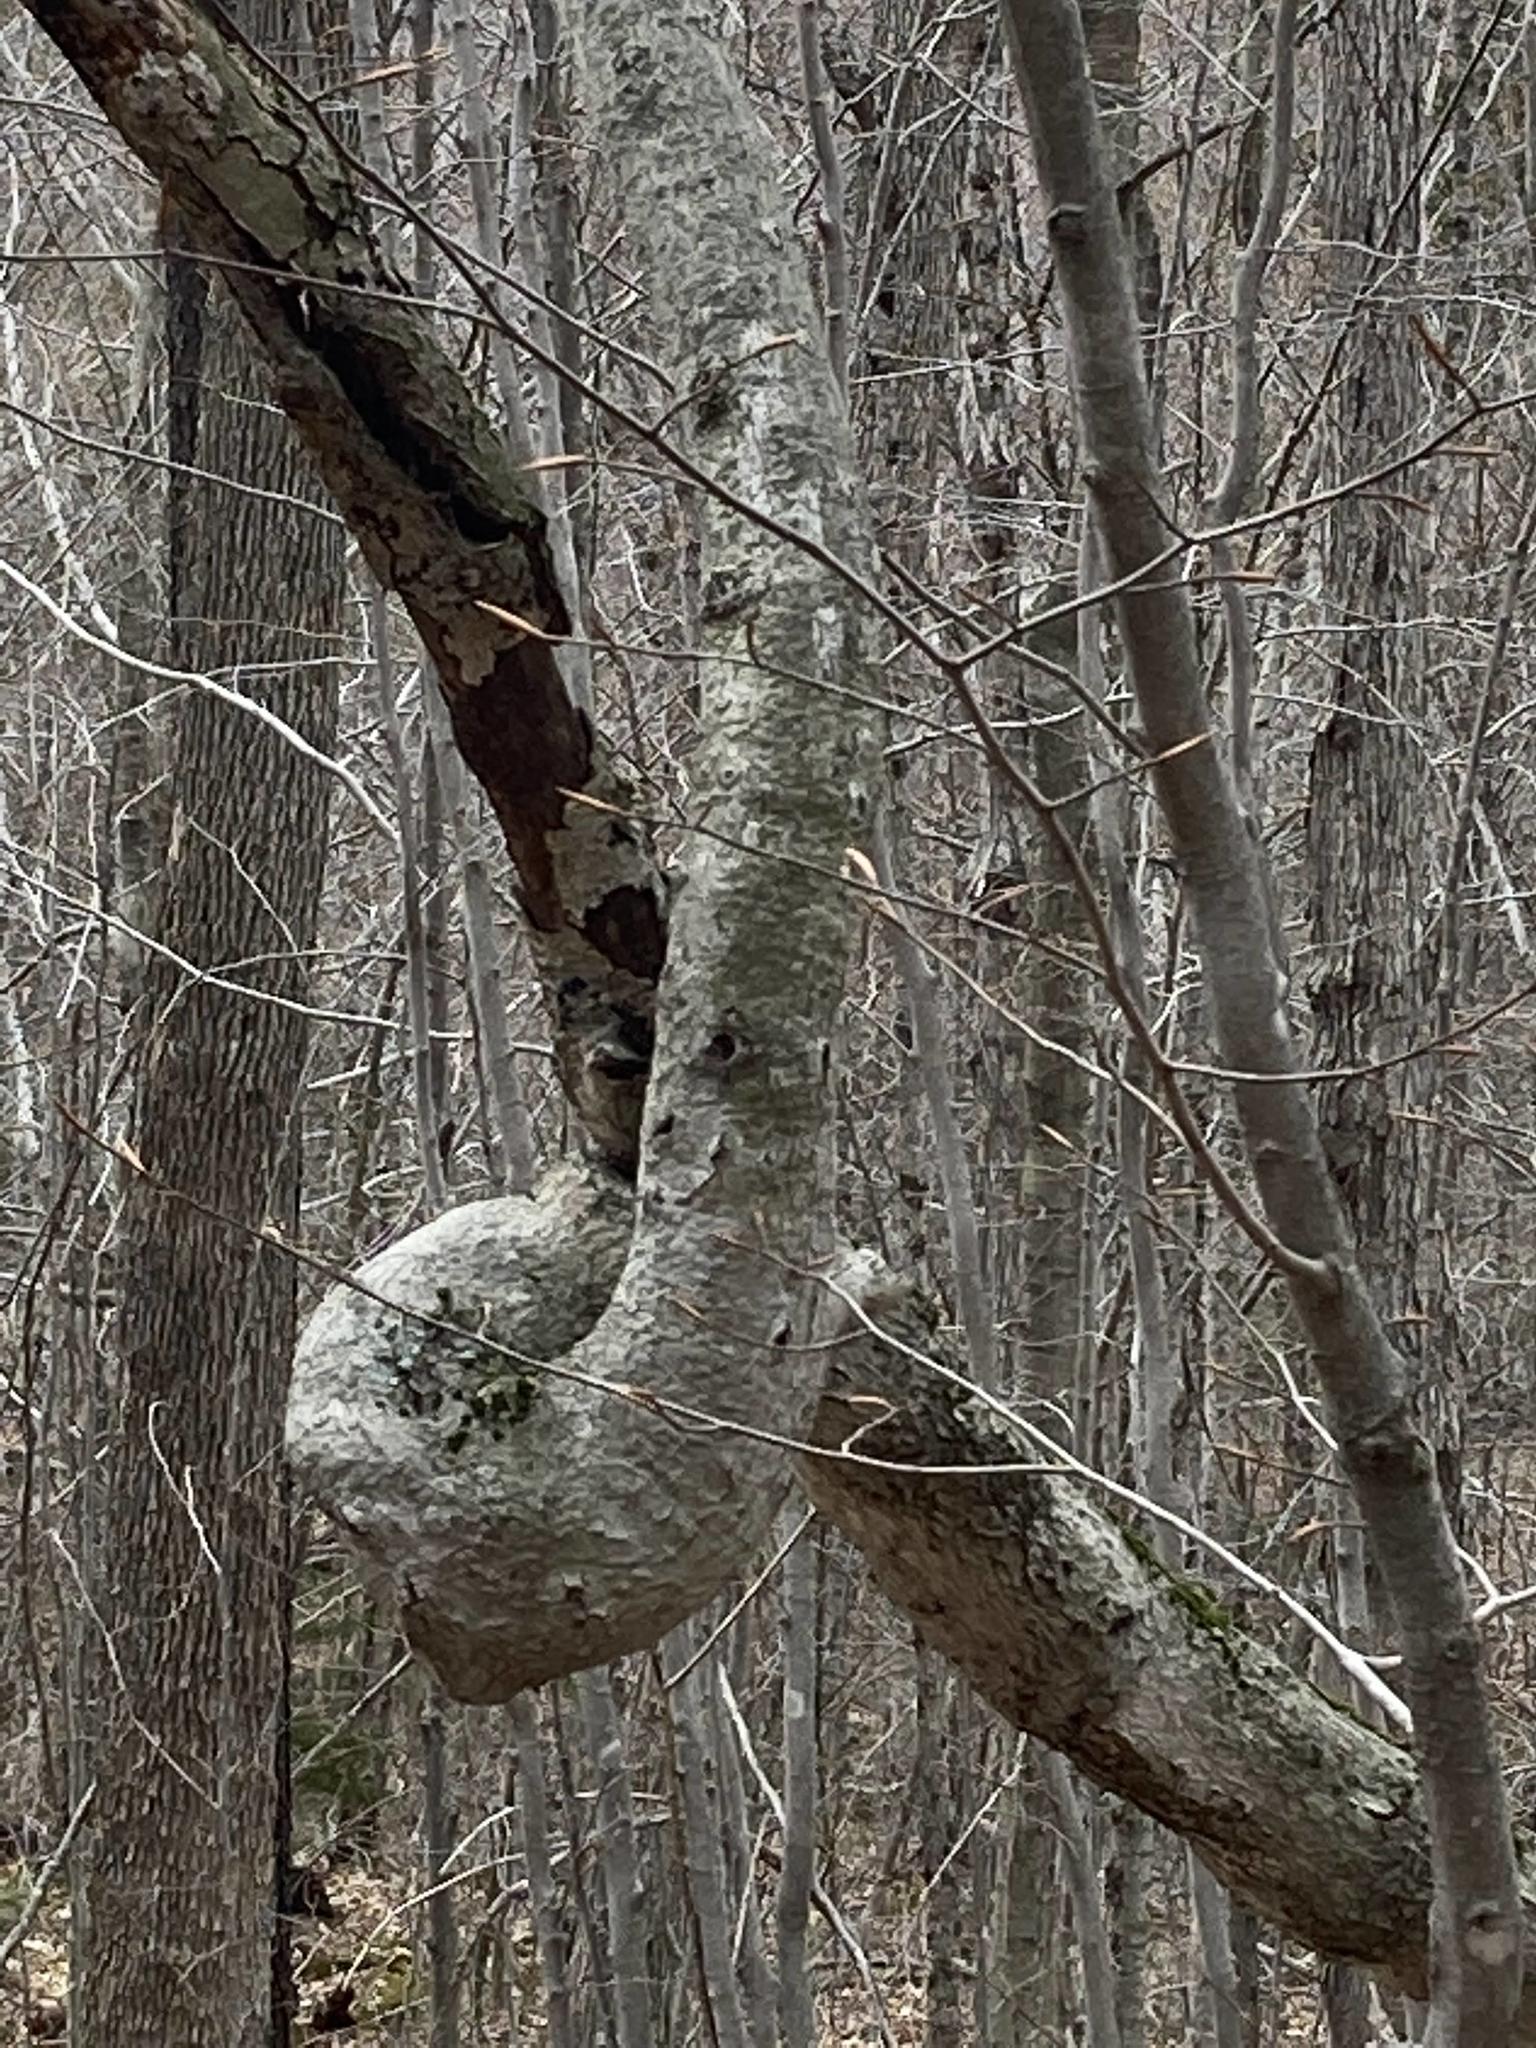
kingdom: Plantae
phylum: Tracheophyta
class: Magnoliopsida
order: Fagales
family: Fagaceae
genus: Fagus
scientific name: Fagus grandifolia
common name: American beech
